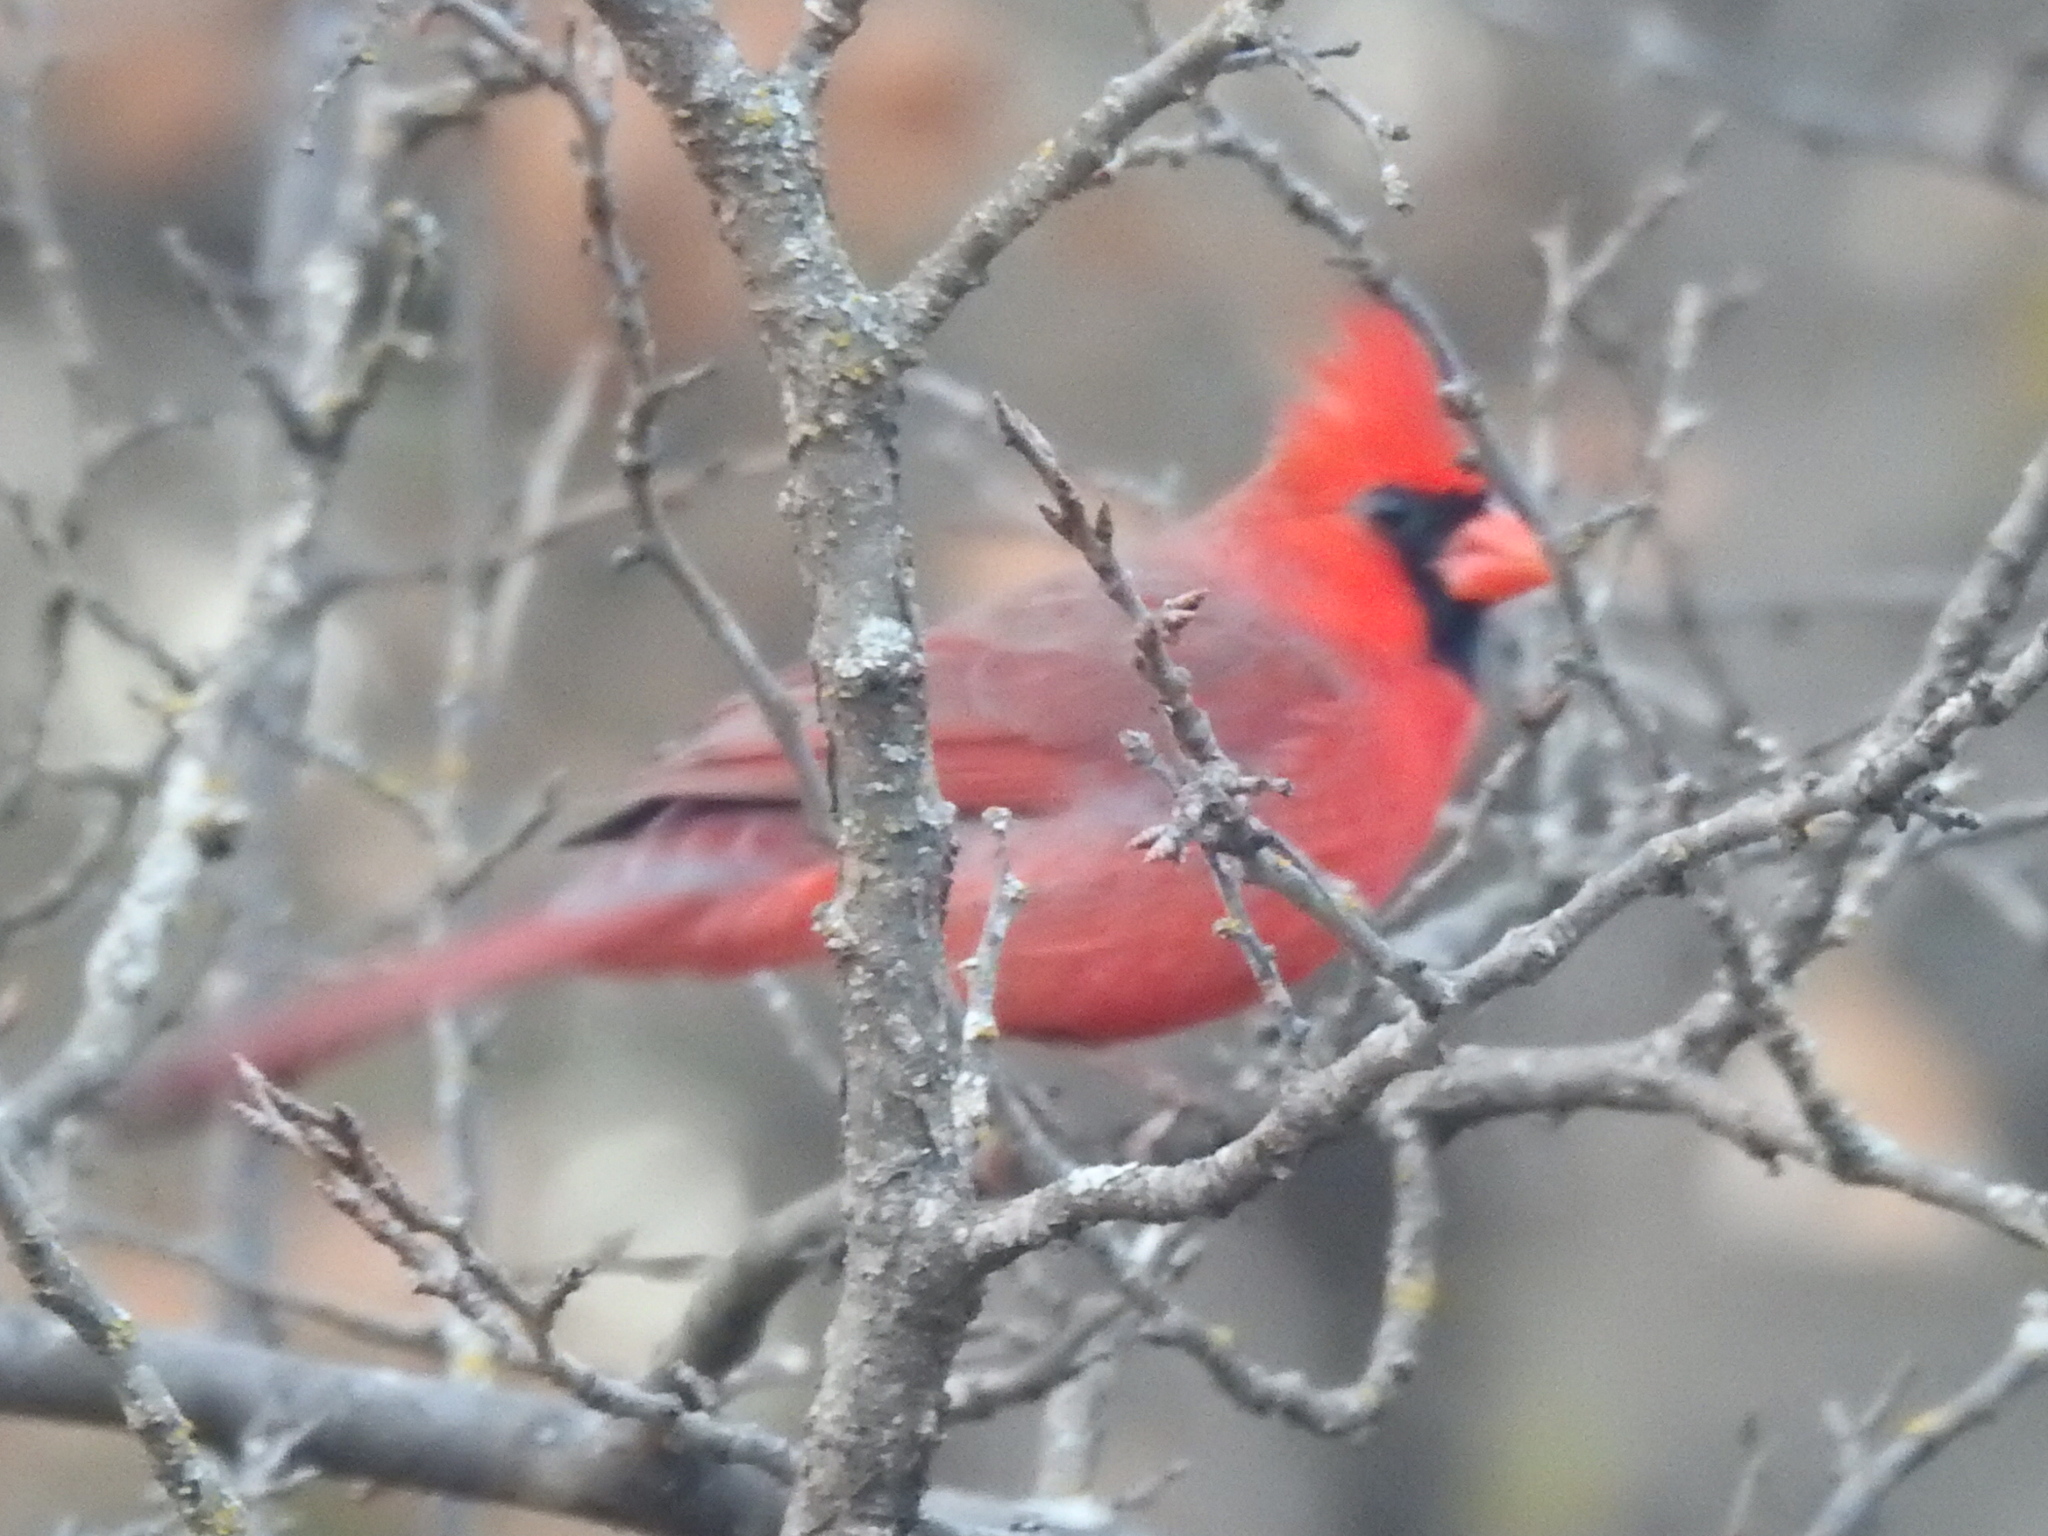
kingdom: Animalia
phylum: Chordata
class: Aves
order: Passeriformes
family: Cardinalidae
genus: Cardinalis
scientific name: Cardinalis cardinalis
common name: Northern cardinal
